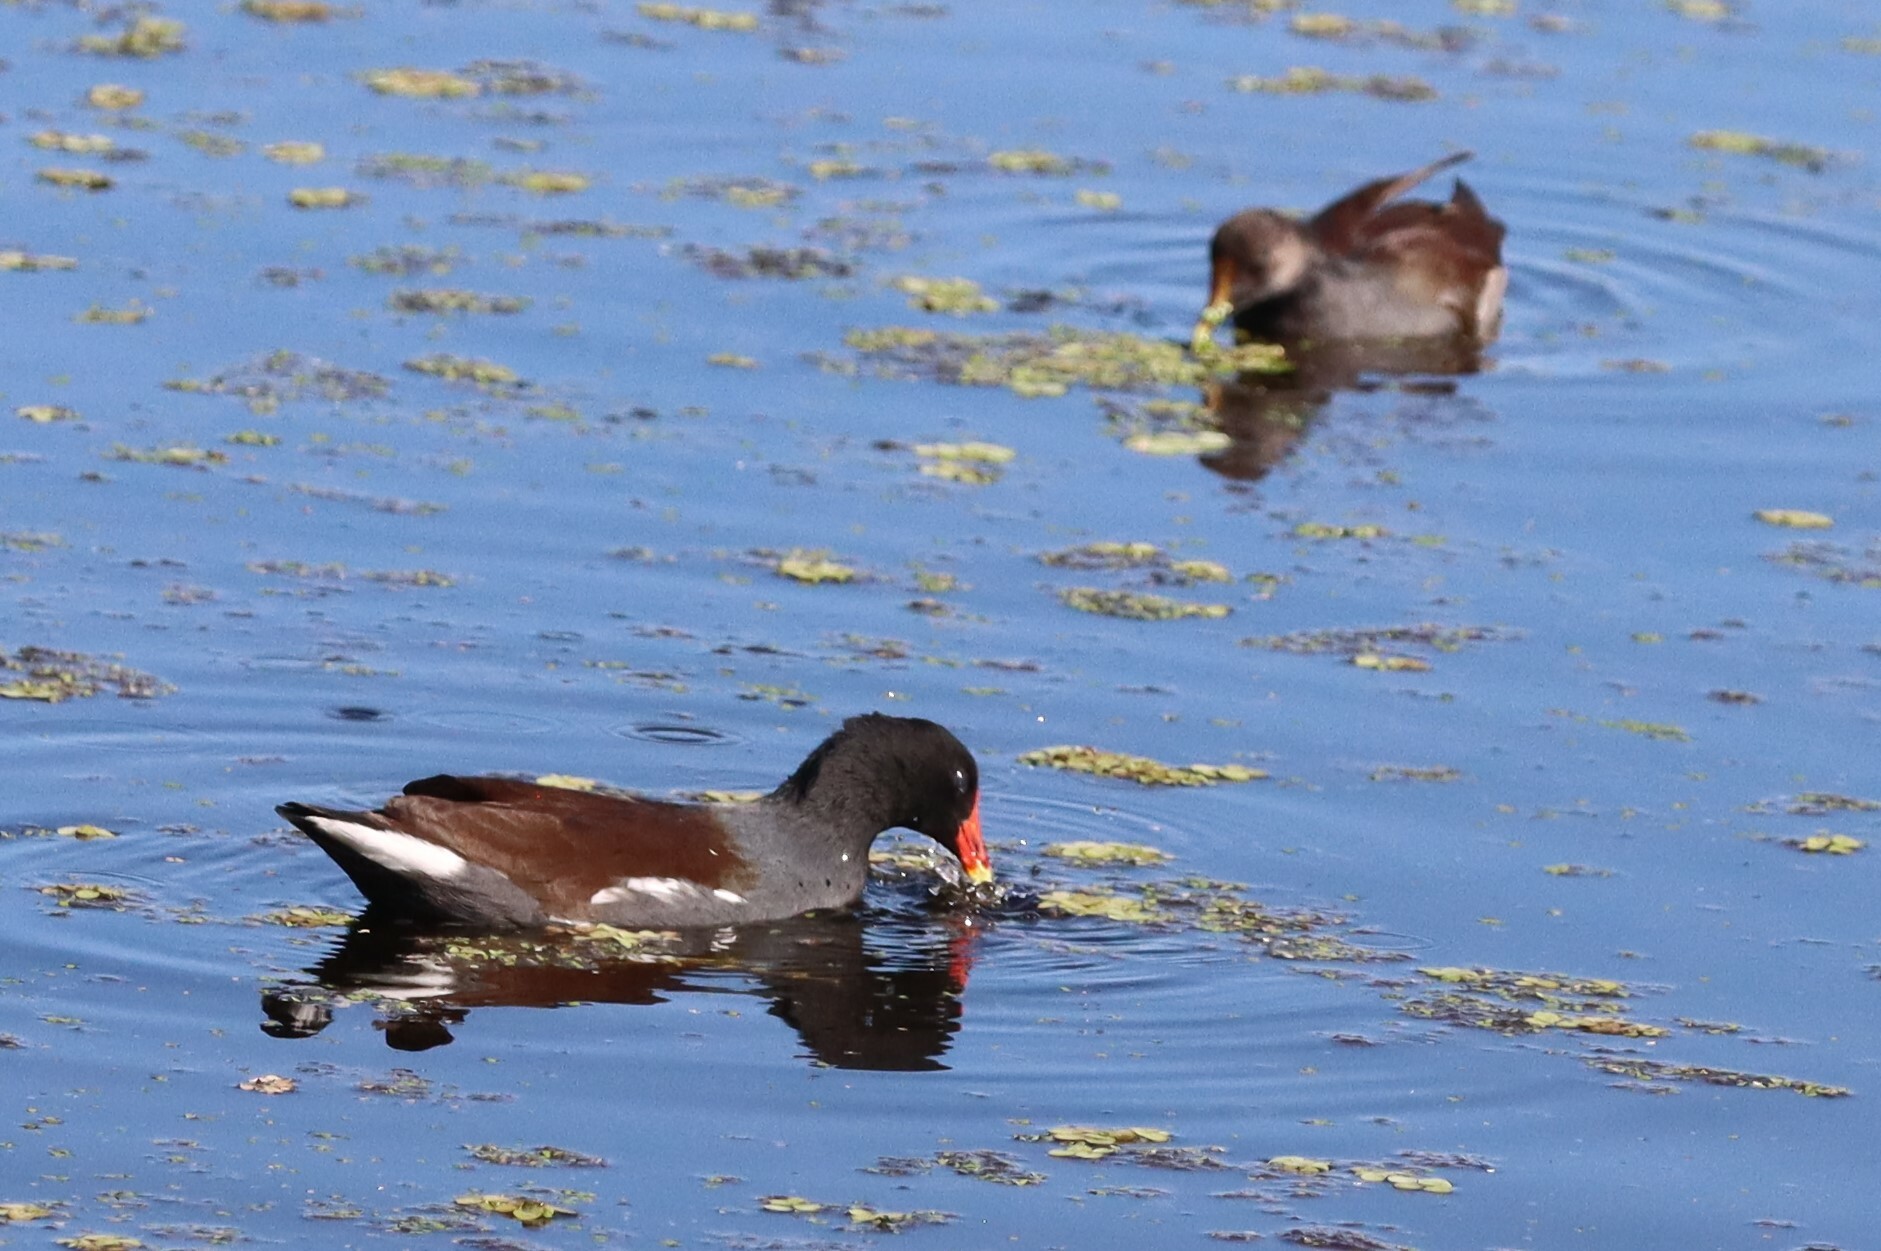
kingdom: Animalia
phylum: Chordata
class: Aves
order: Gruiformes
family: Rallidae
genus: Gallinula
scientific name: Gallinula chloropus
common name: Common moorhen
